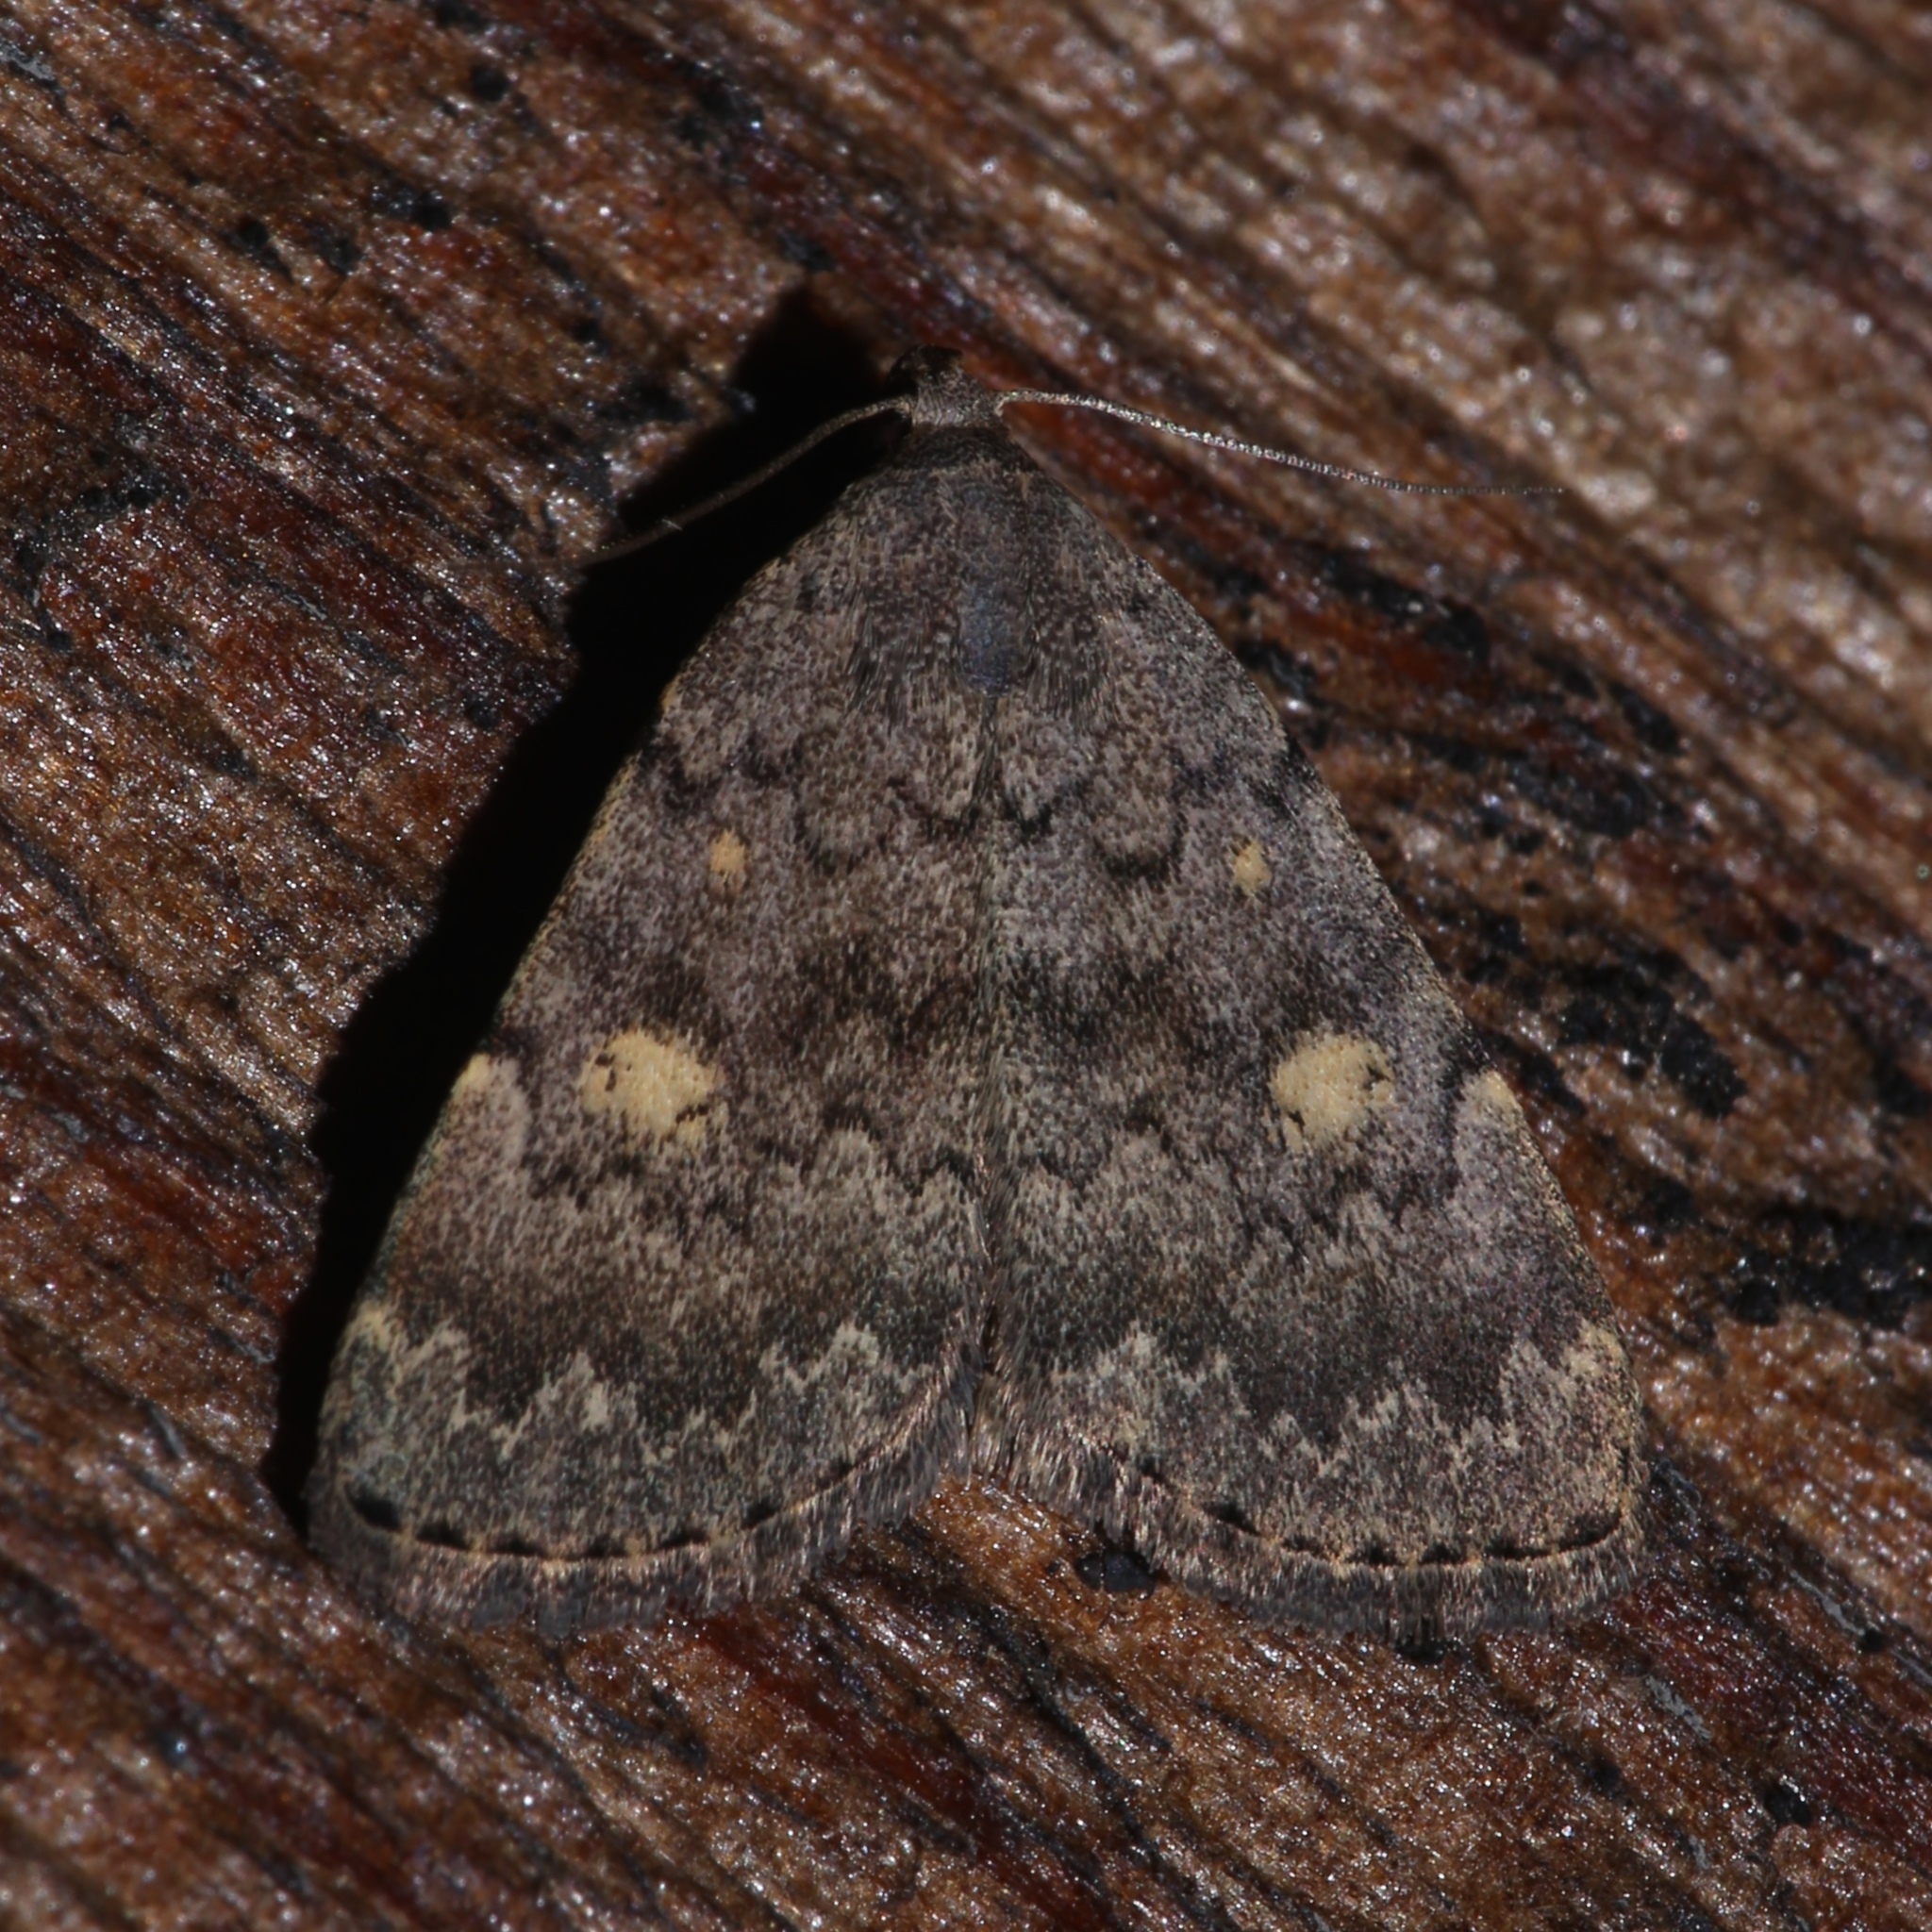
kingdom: Animalia
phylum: Arthropoda
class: Insecta
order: Lepidoptera
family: Erebidae
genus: Idia
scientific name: Idia aemula
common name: Common idia moth
